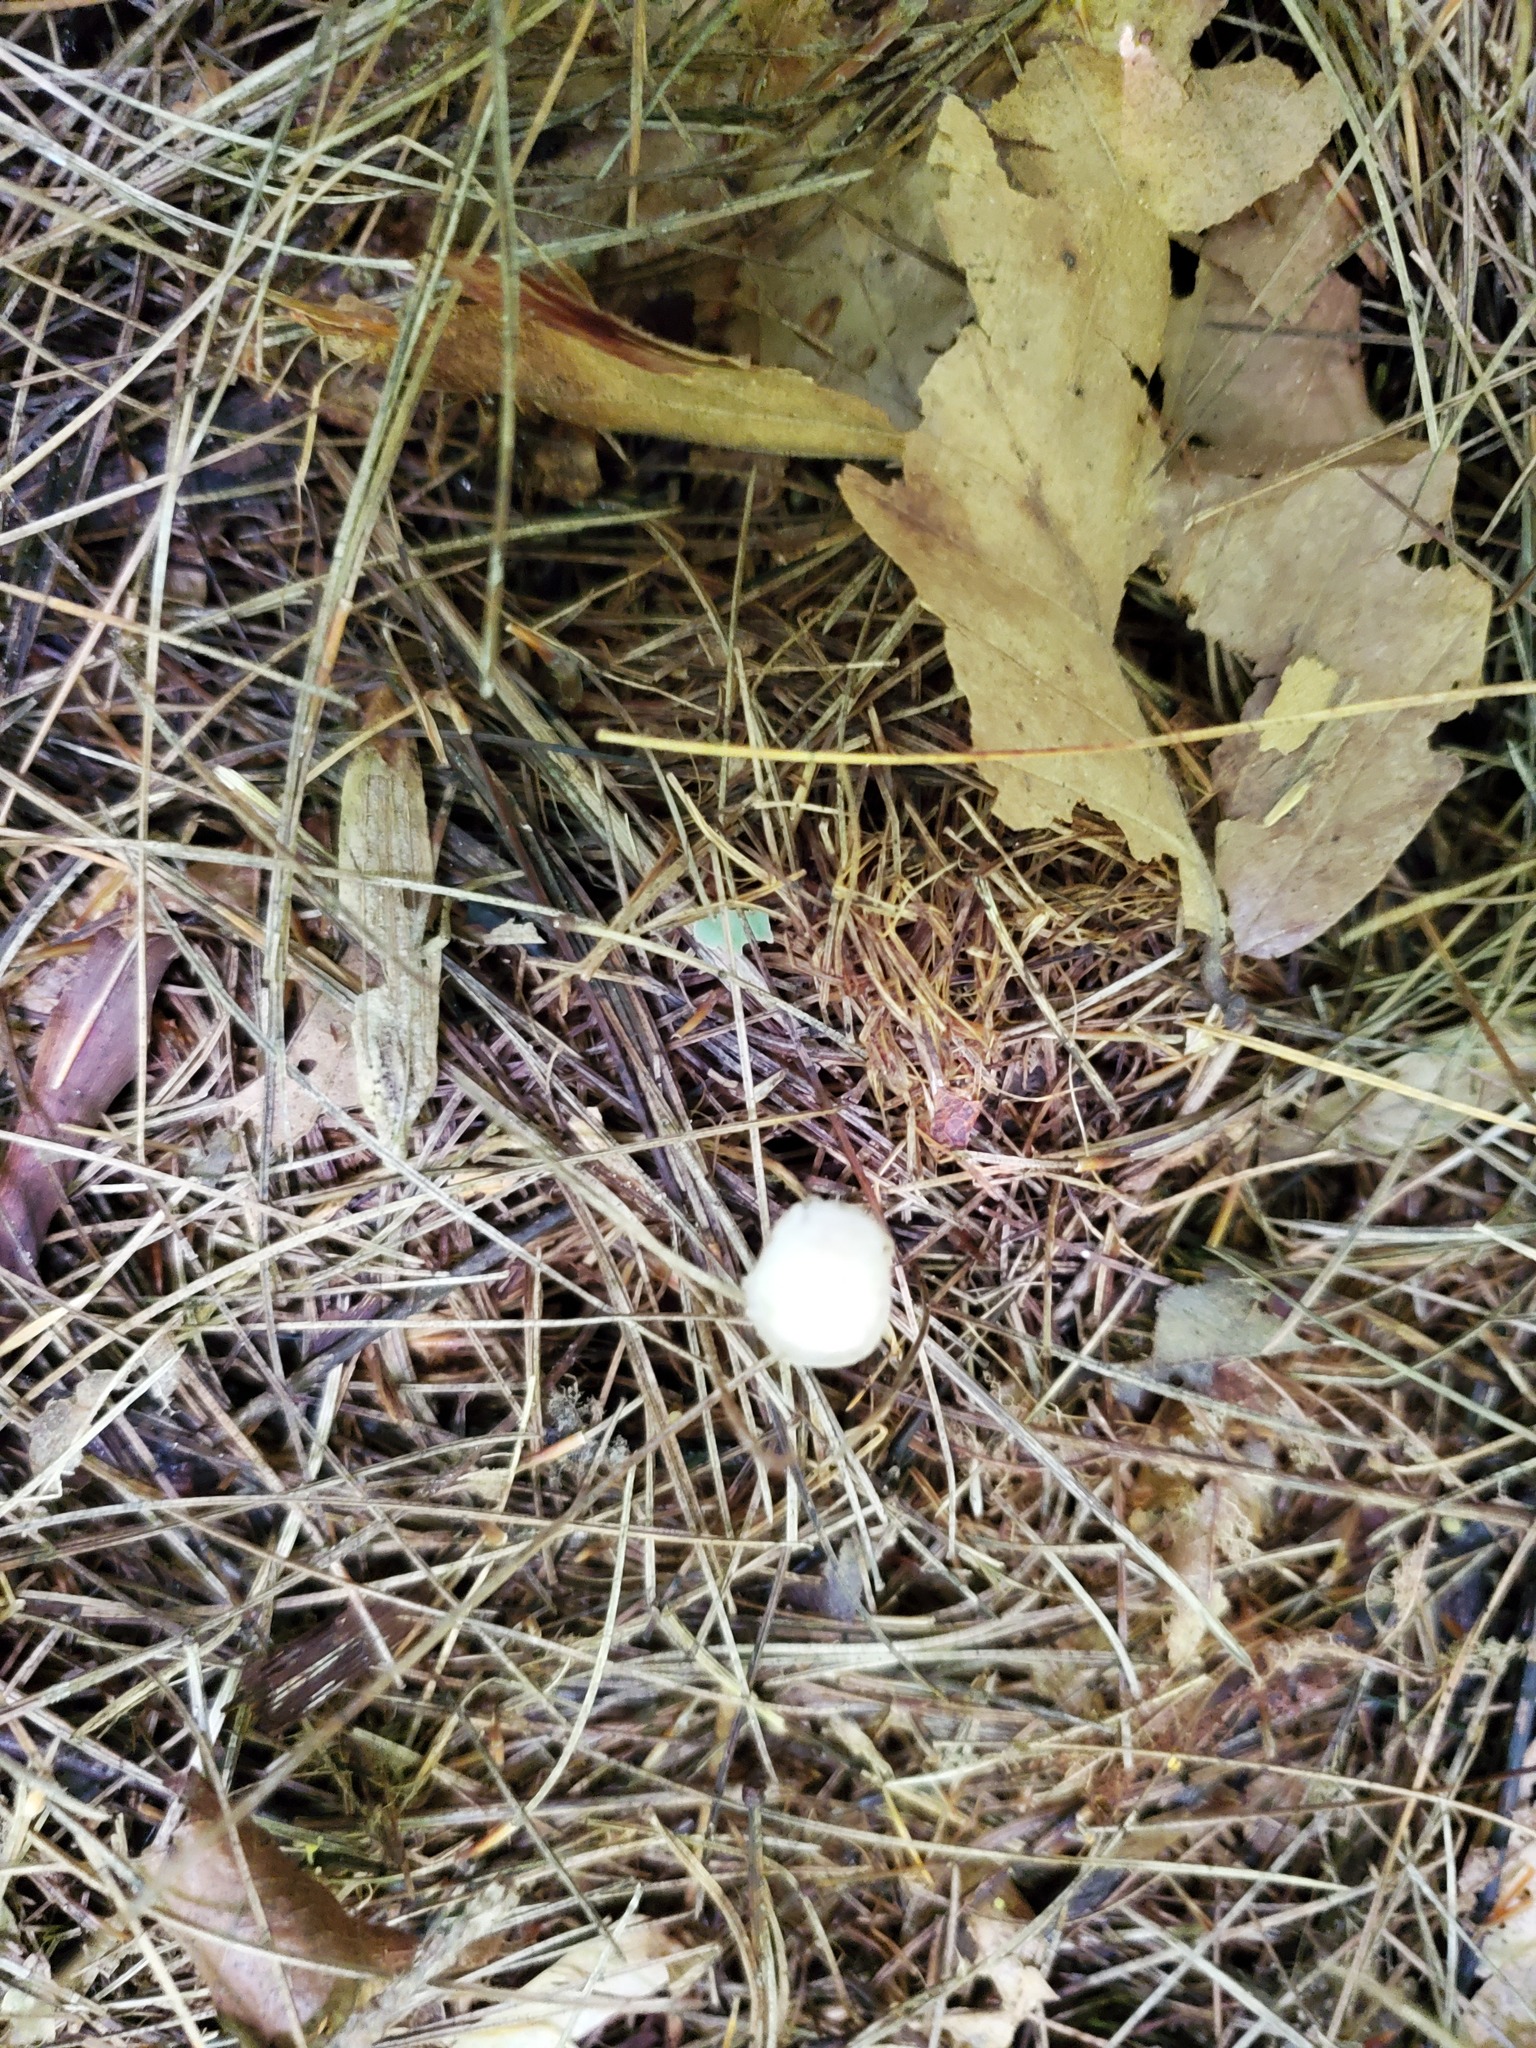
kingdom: Fungi
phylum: Basidiomycota
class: Agaricomycetes
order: Agaricales
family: Mycenaceae
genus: Mycena
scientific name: Mycena pearsoniana
